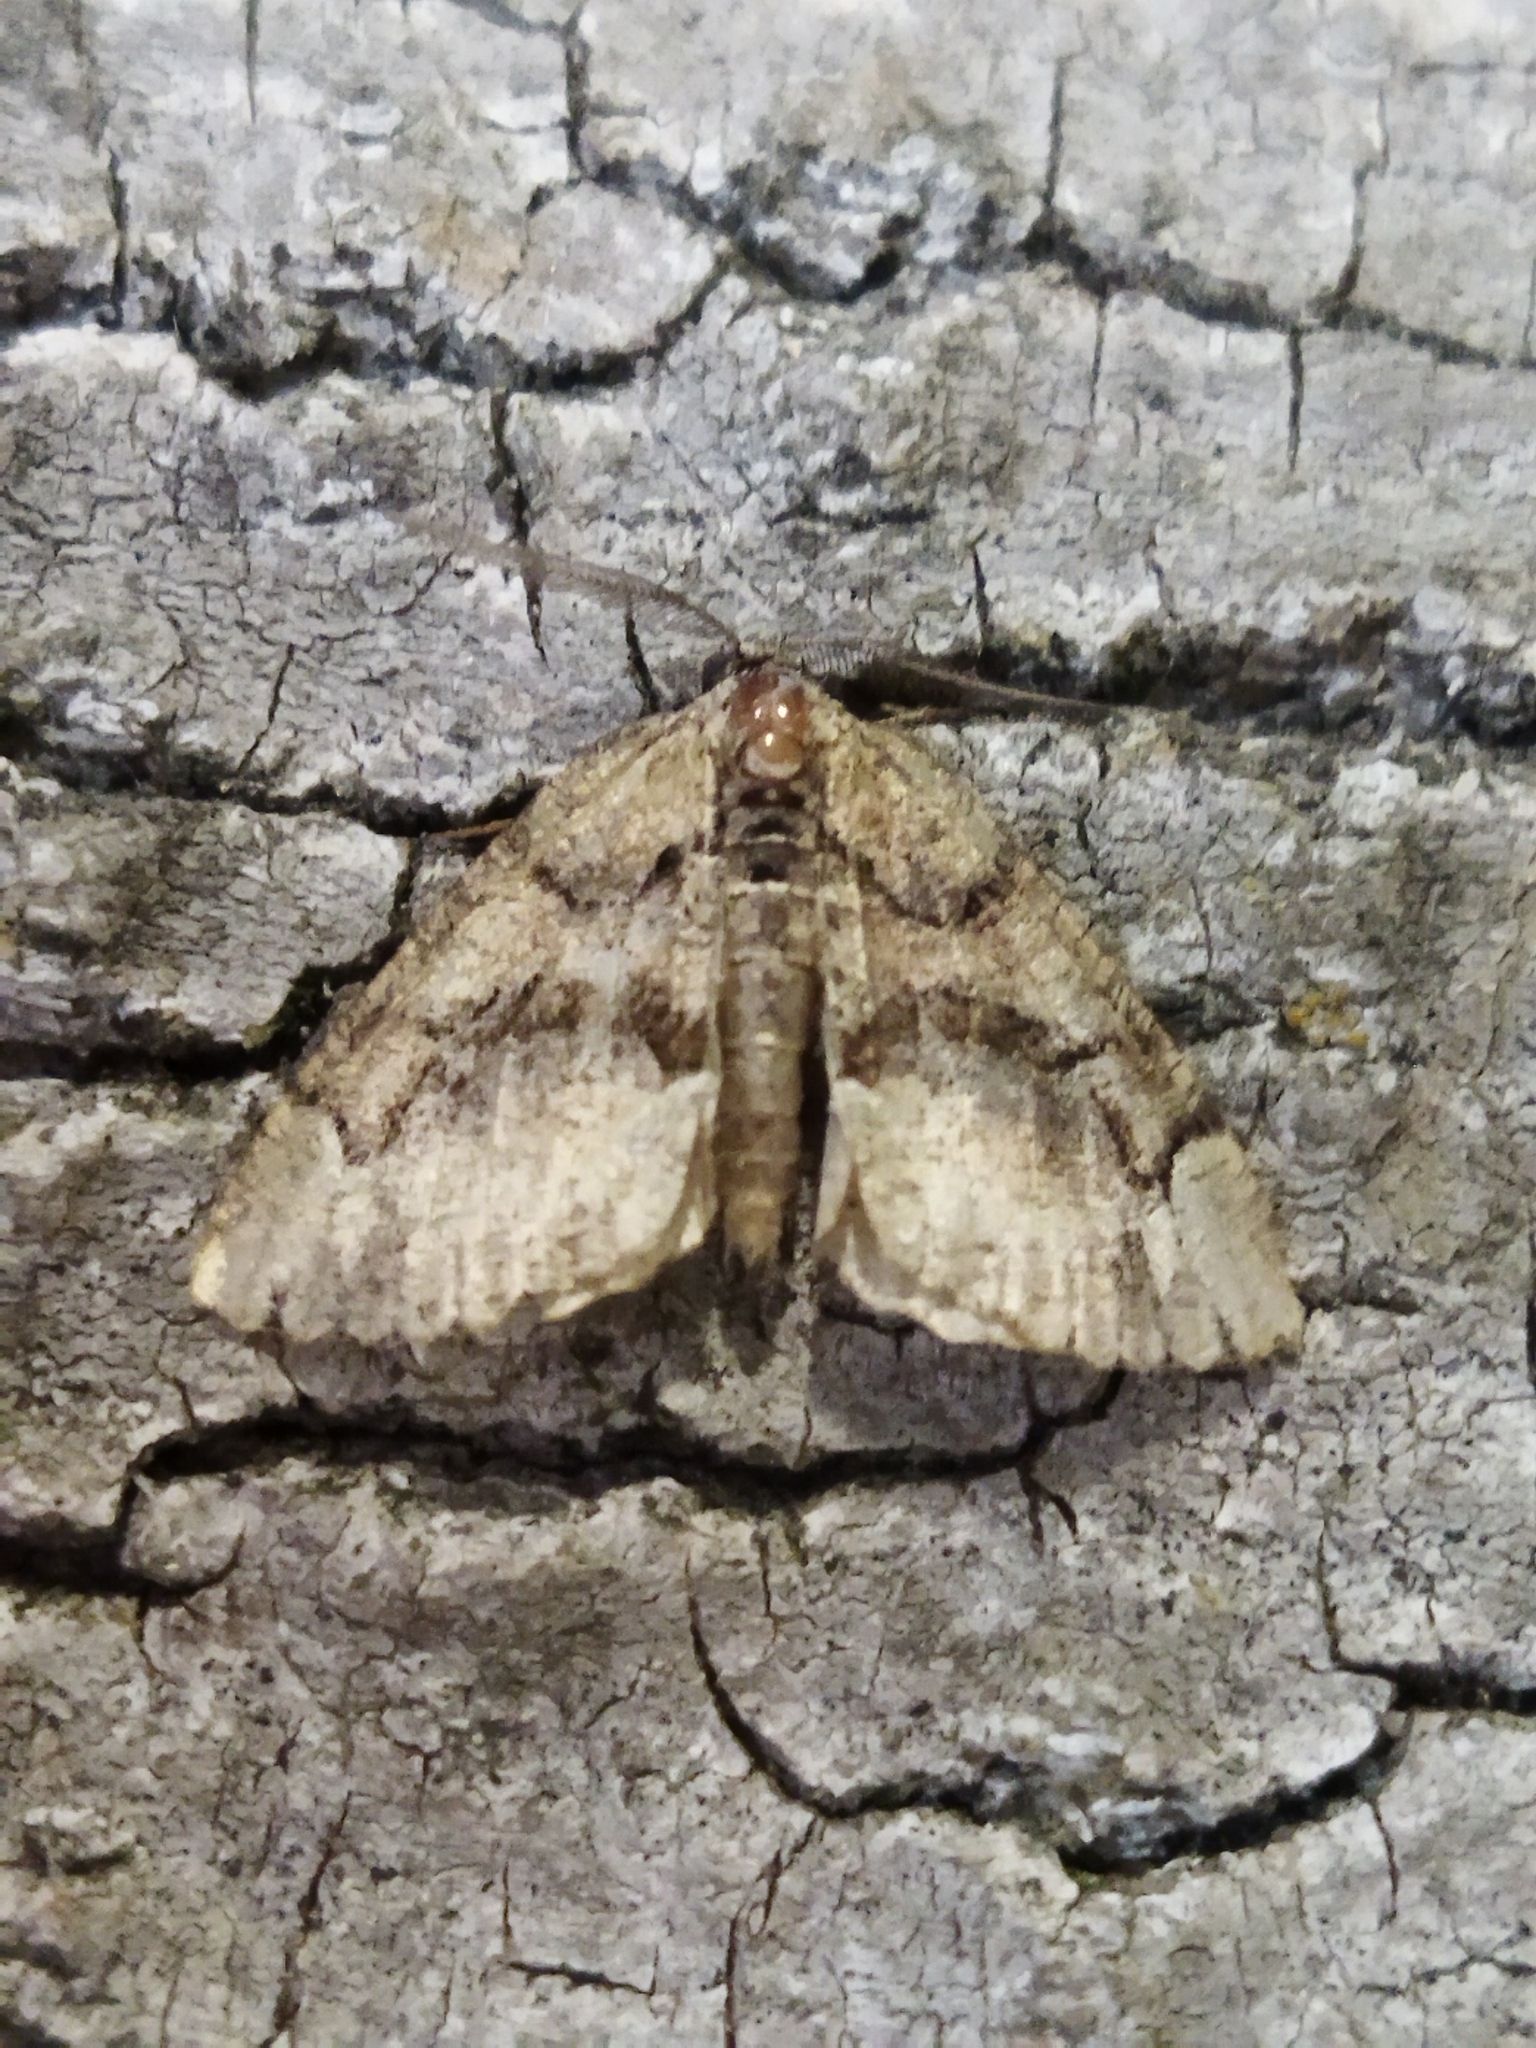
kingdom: Animalia
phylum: Arthropoda
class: Insecta
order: Lepidoptera
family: Geometridae
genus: Asovia
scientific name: Asovia maeoticaria
